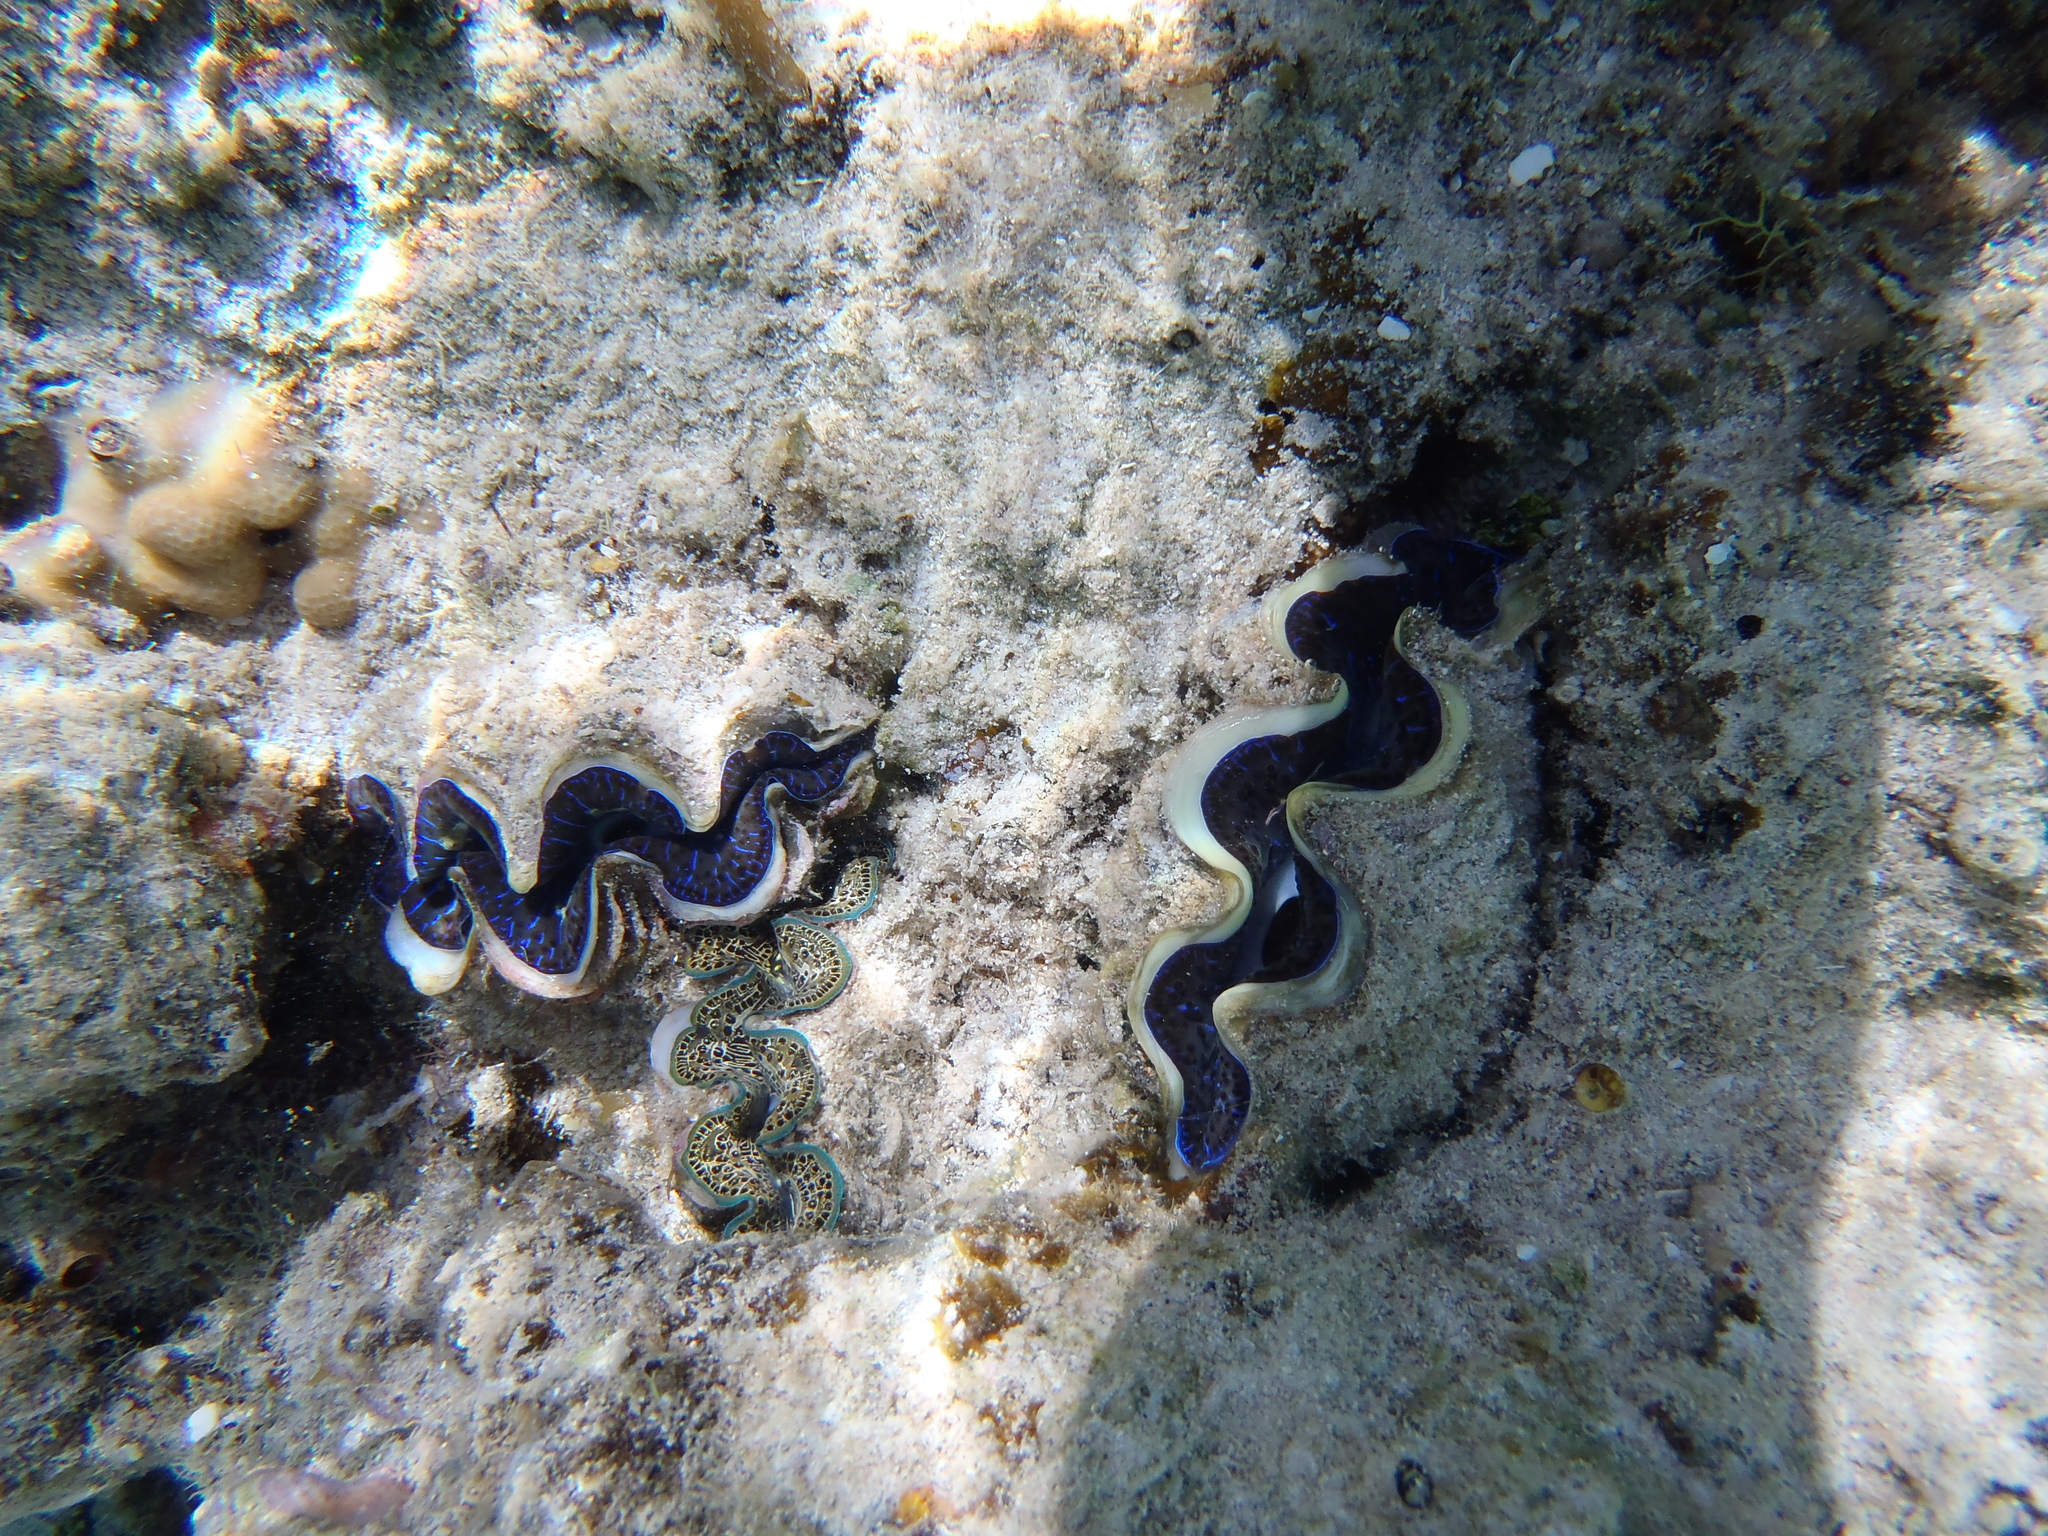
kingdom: Animalia
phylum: Mollusca
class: Bivalvia
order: Cardiida
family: Cardiidae
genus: Tridacna
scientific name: Tridacna maxima
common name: Small giant clam
